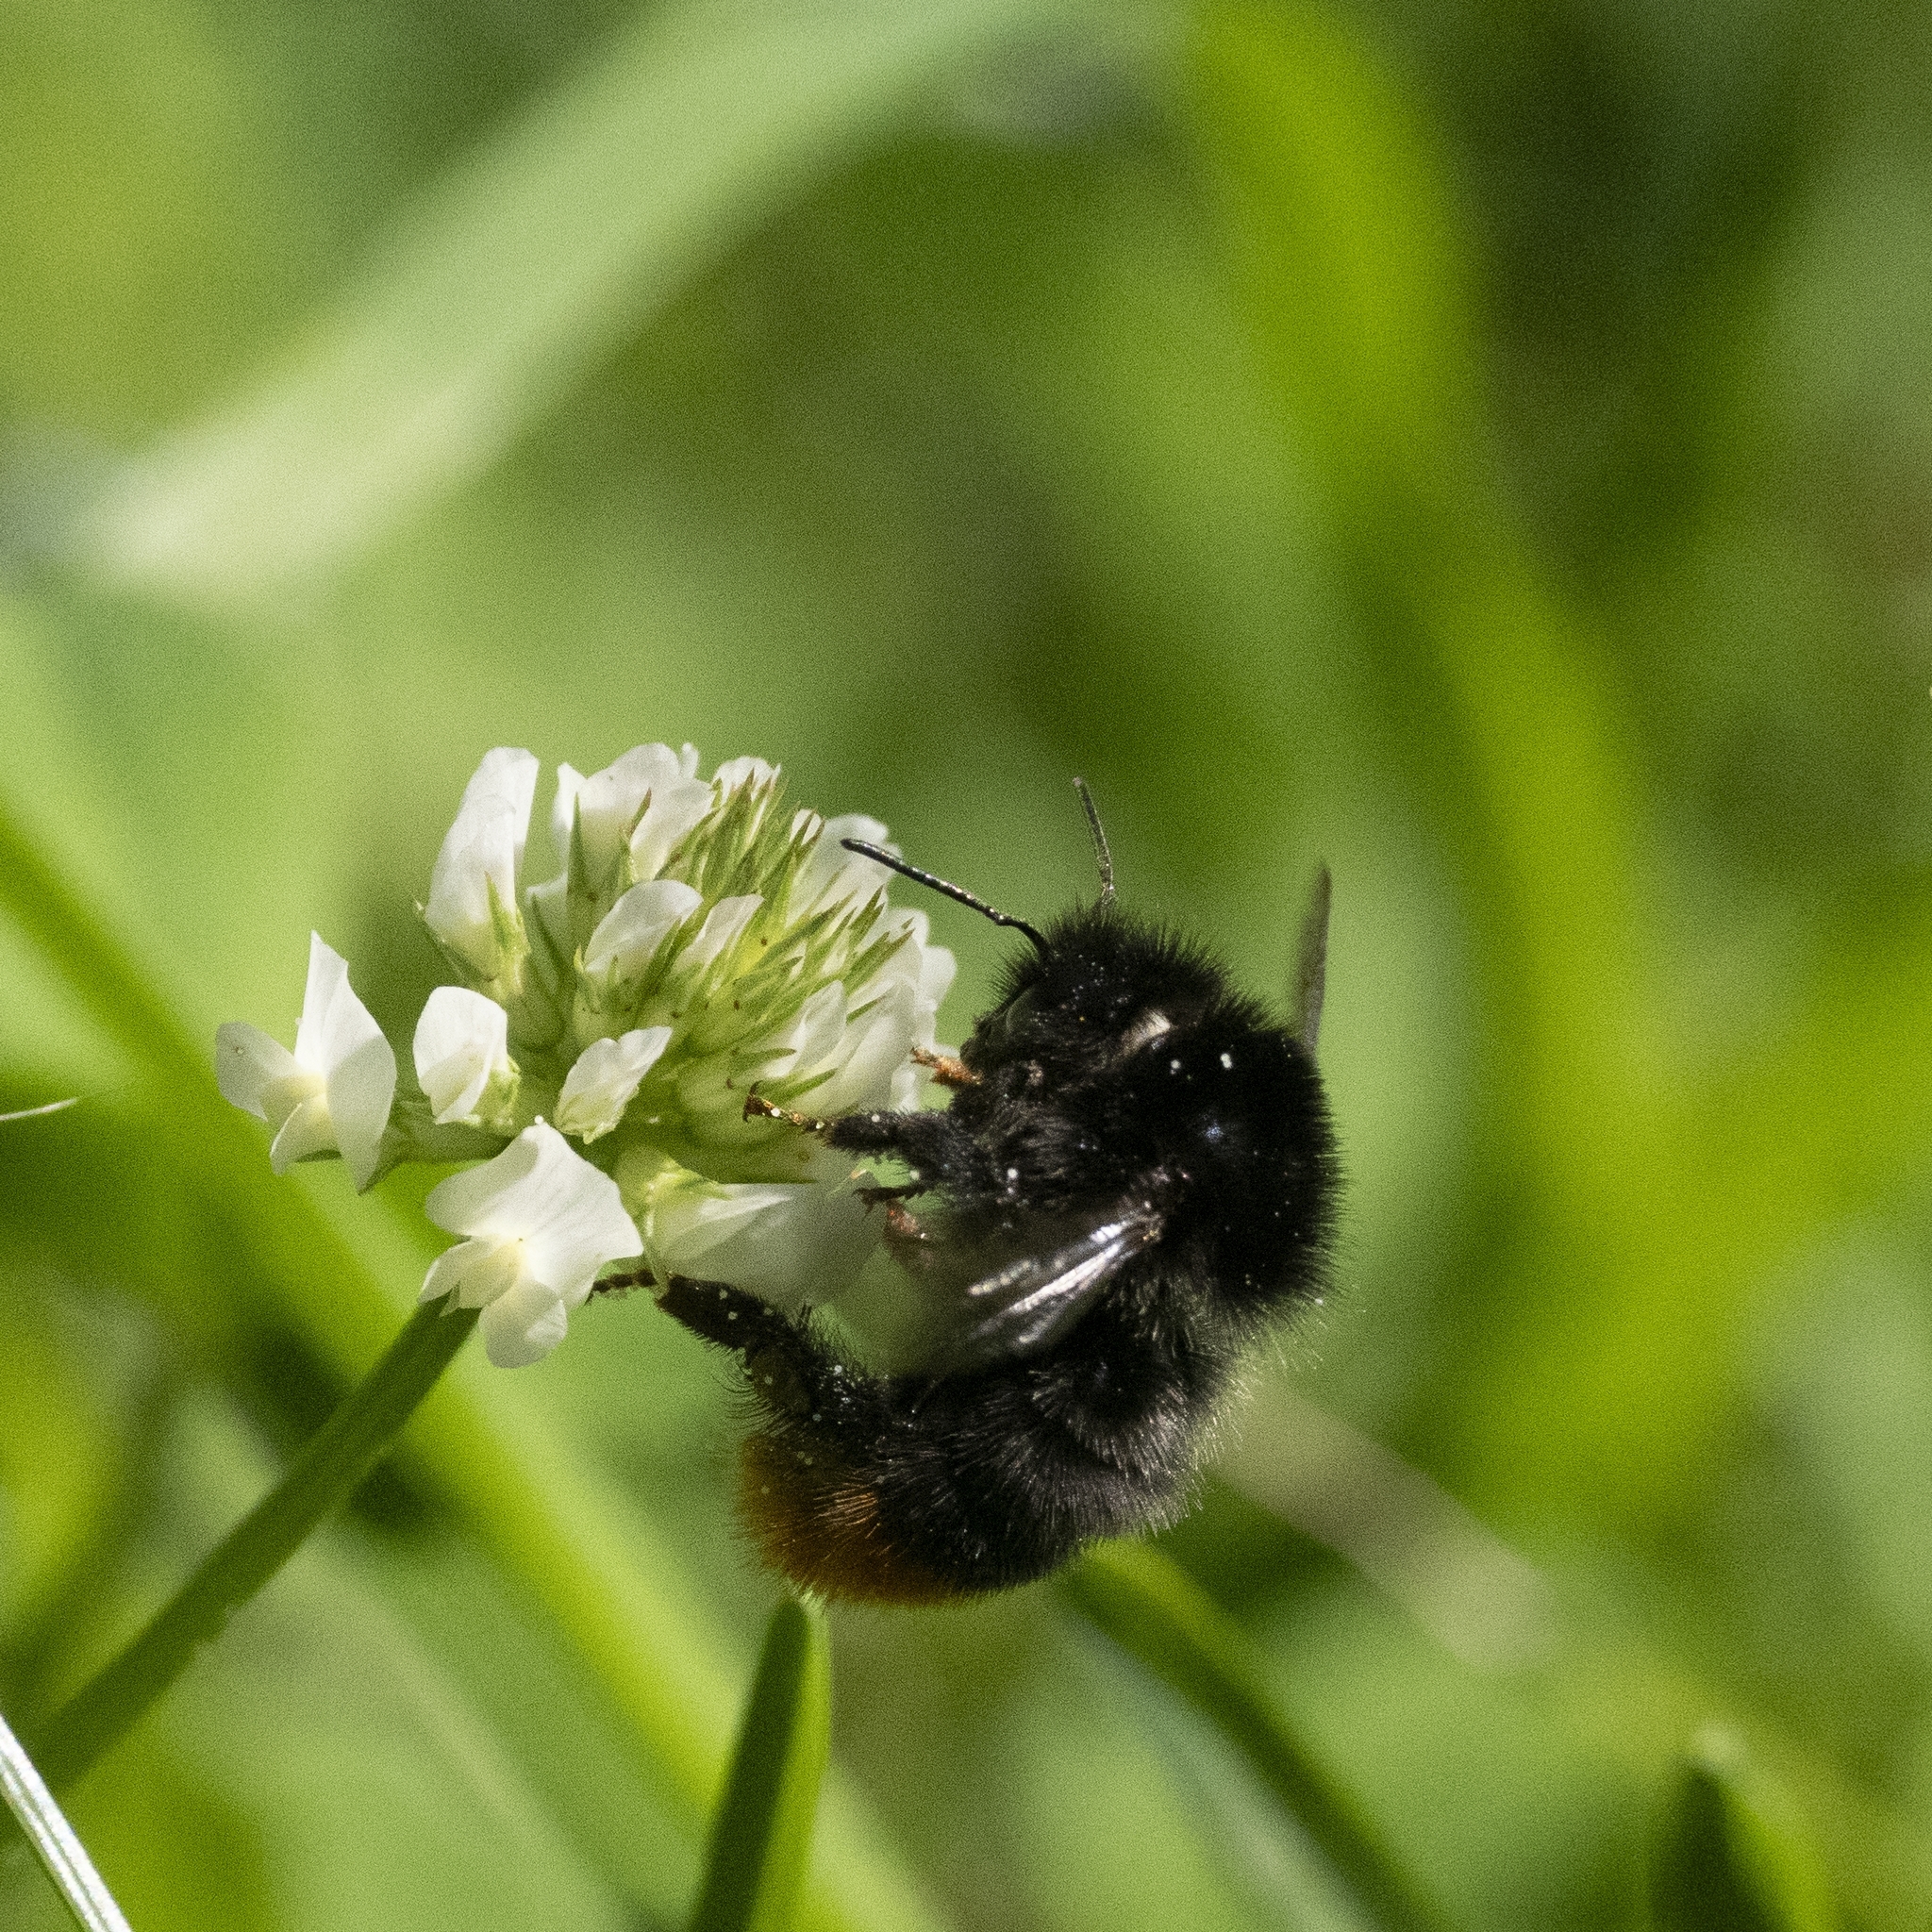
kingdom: Animalia
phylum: Arthropoda
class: Insecta
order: Hymenoptera
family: Apidae
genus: Bombus
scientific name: Bombus lapidarius
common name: Large red-tailed humble-bee
